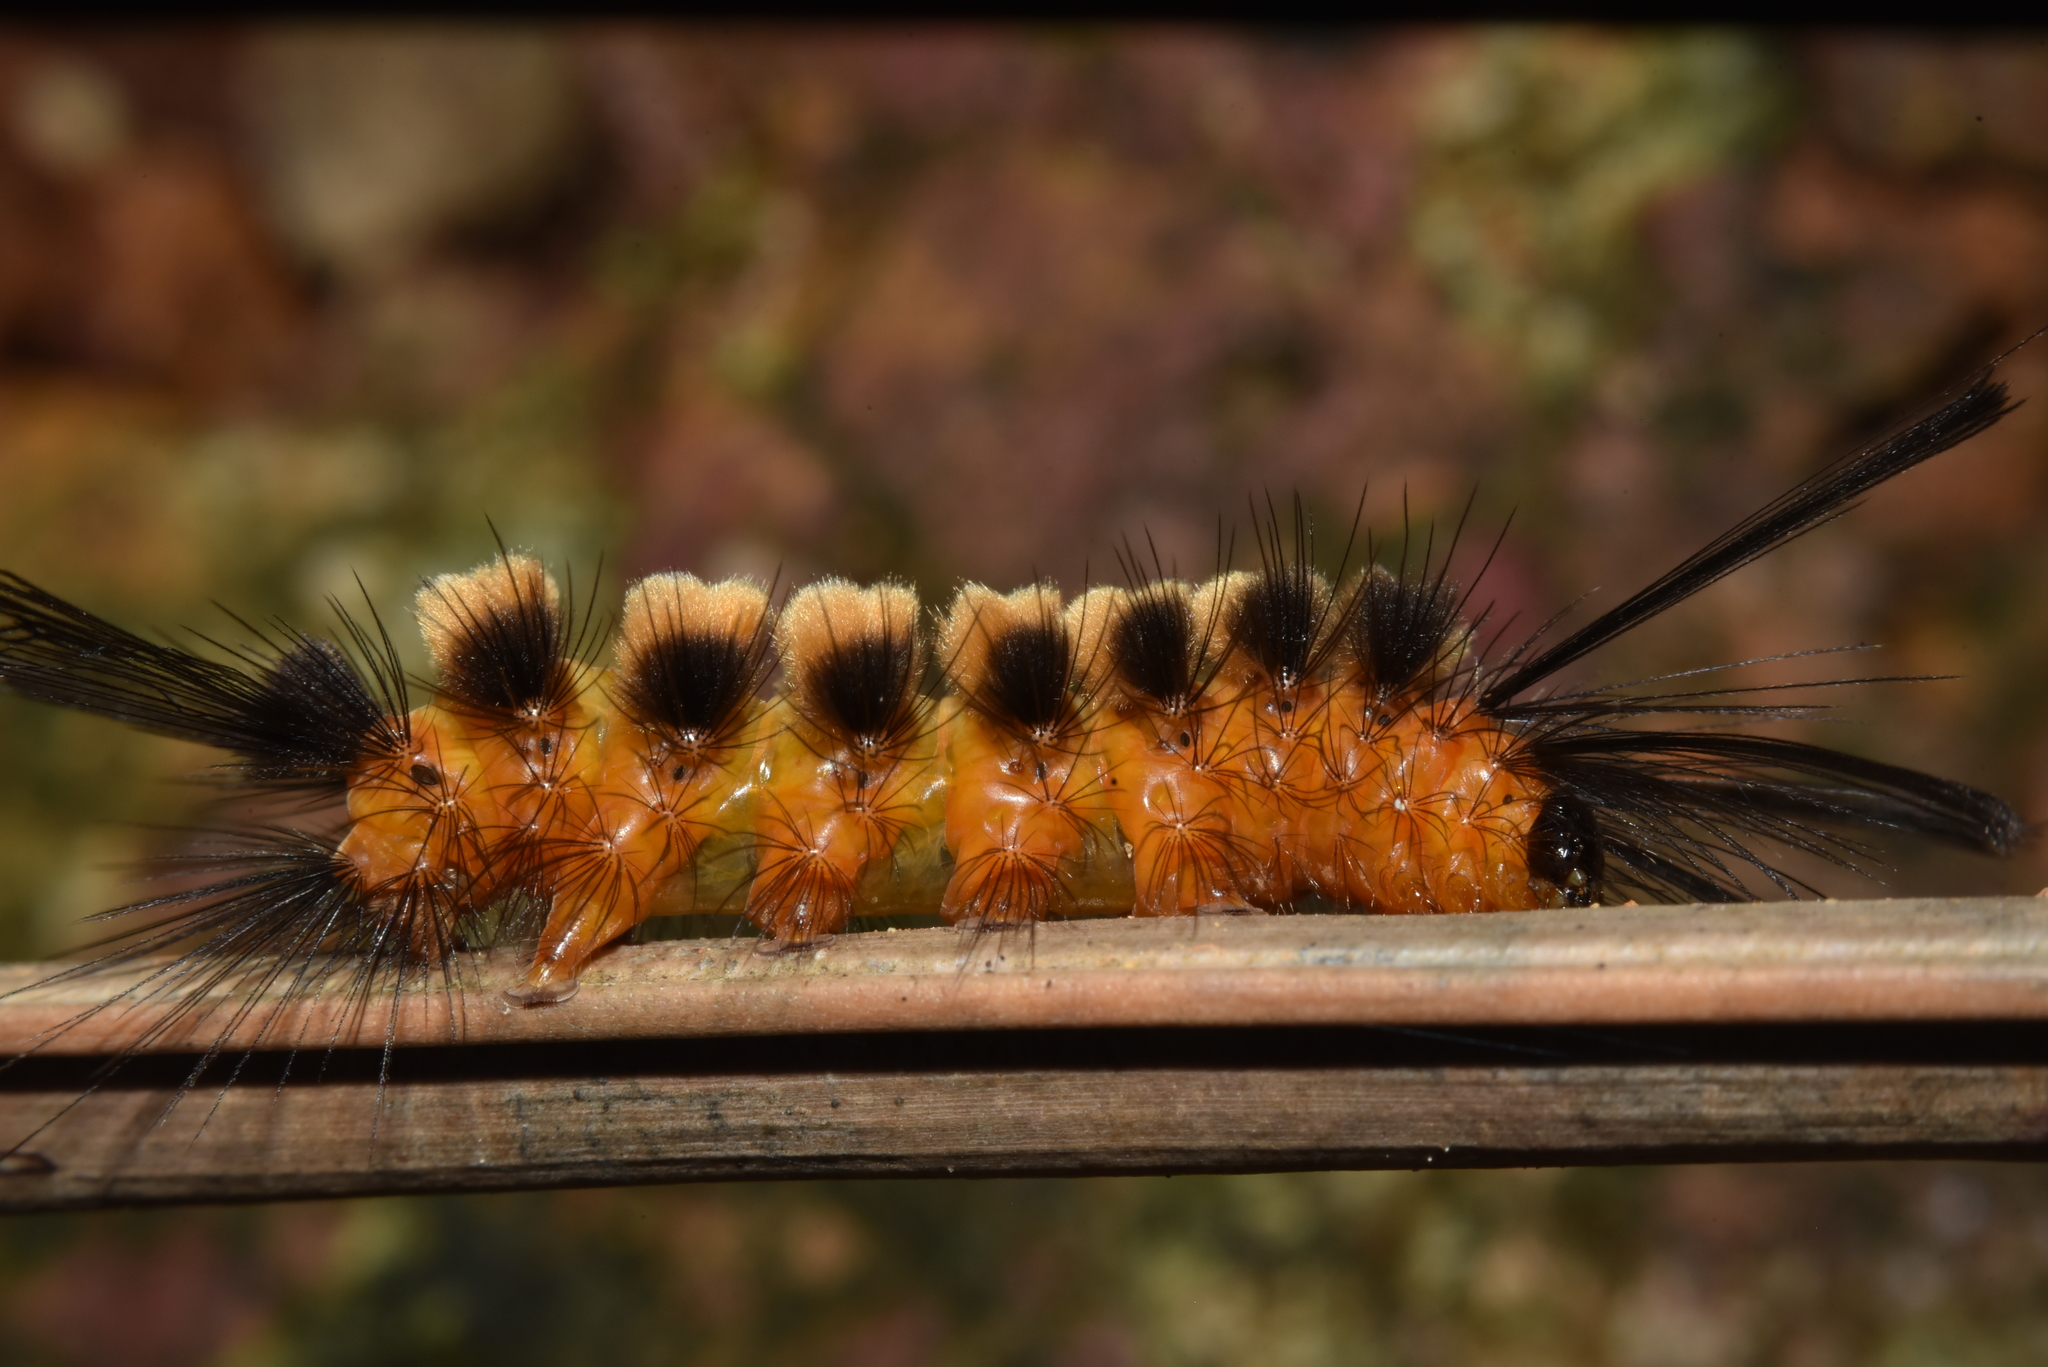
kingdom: Animalia
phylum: Arthropoda
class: Insecta
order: Lepidoptera
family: Erebidae
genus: Euchromia
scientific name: Euchromia polymena
